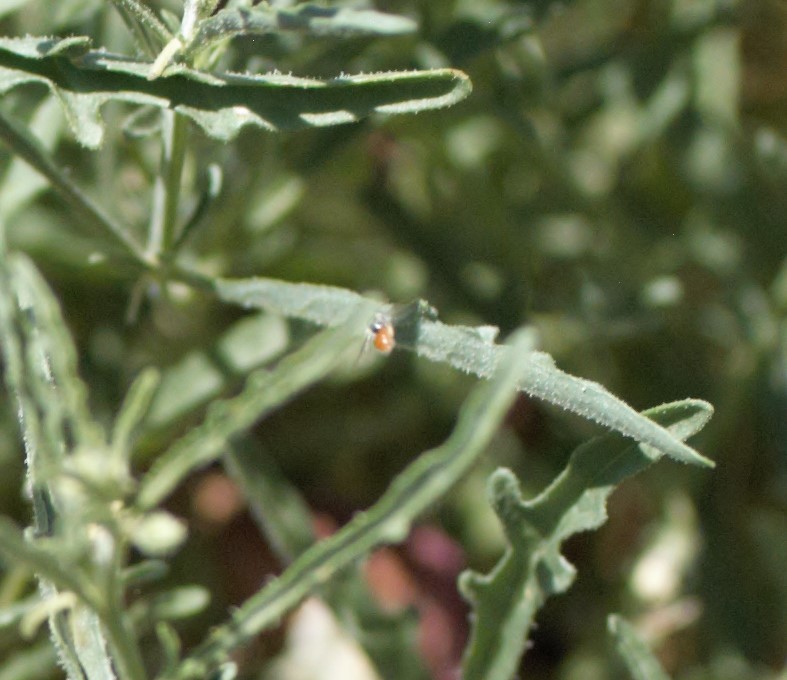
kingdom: Animalia
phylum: Arthropoda
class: Insecta
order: Hymenoptera
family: Andrenidae
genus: Perdita
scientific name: Perdita chamaesarachae
